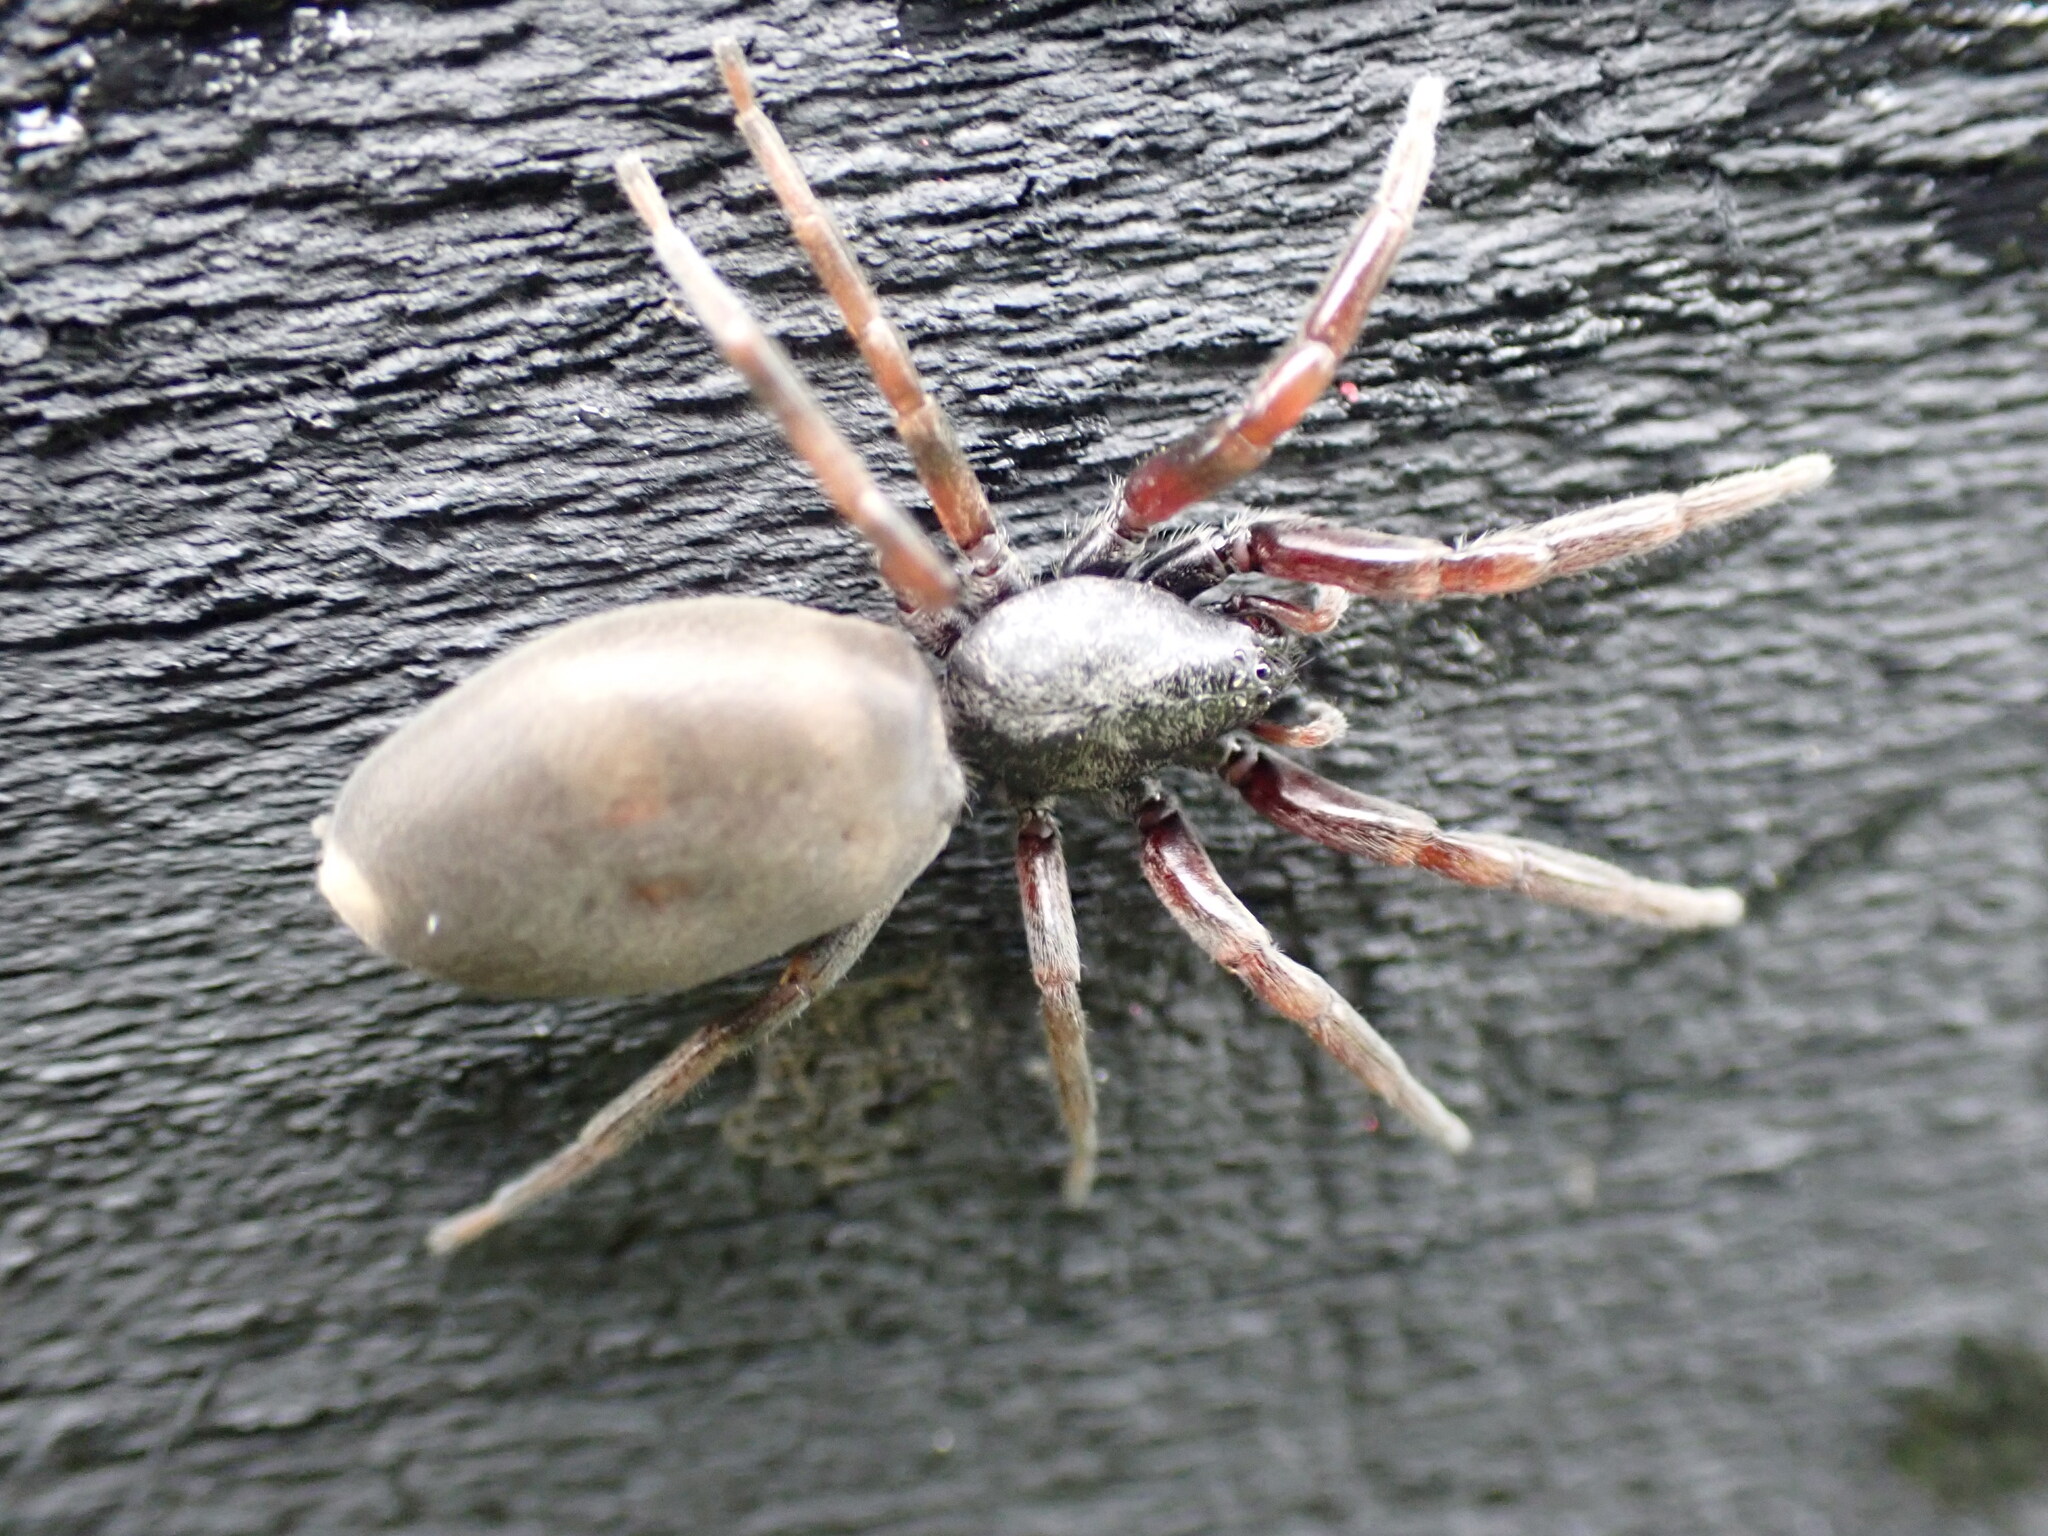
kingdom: Animalia
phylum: Arthropoda
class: Arachnida
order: Araneae
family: Lamponidae
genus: Lampona
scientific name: Lampona murina
